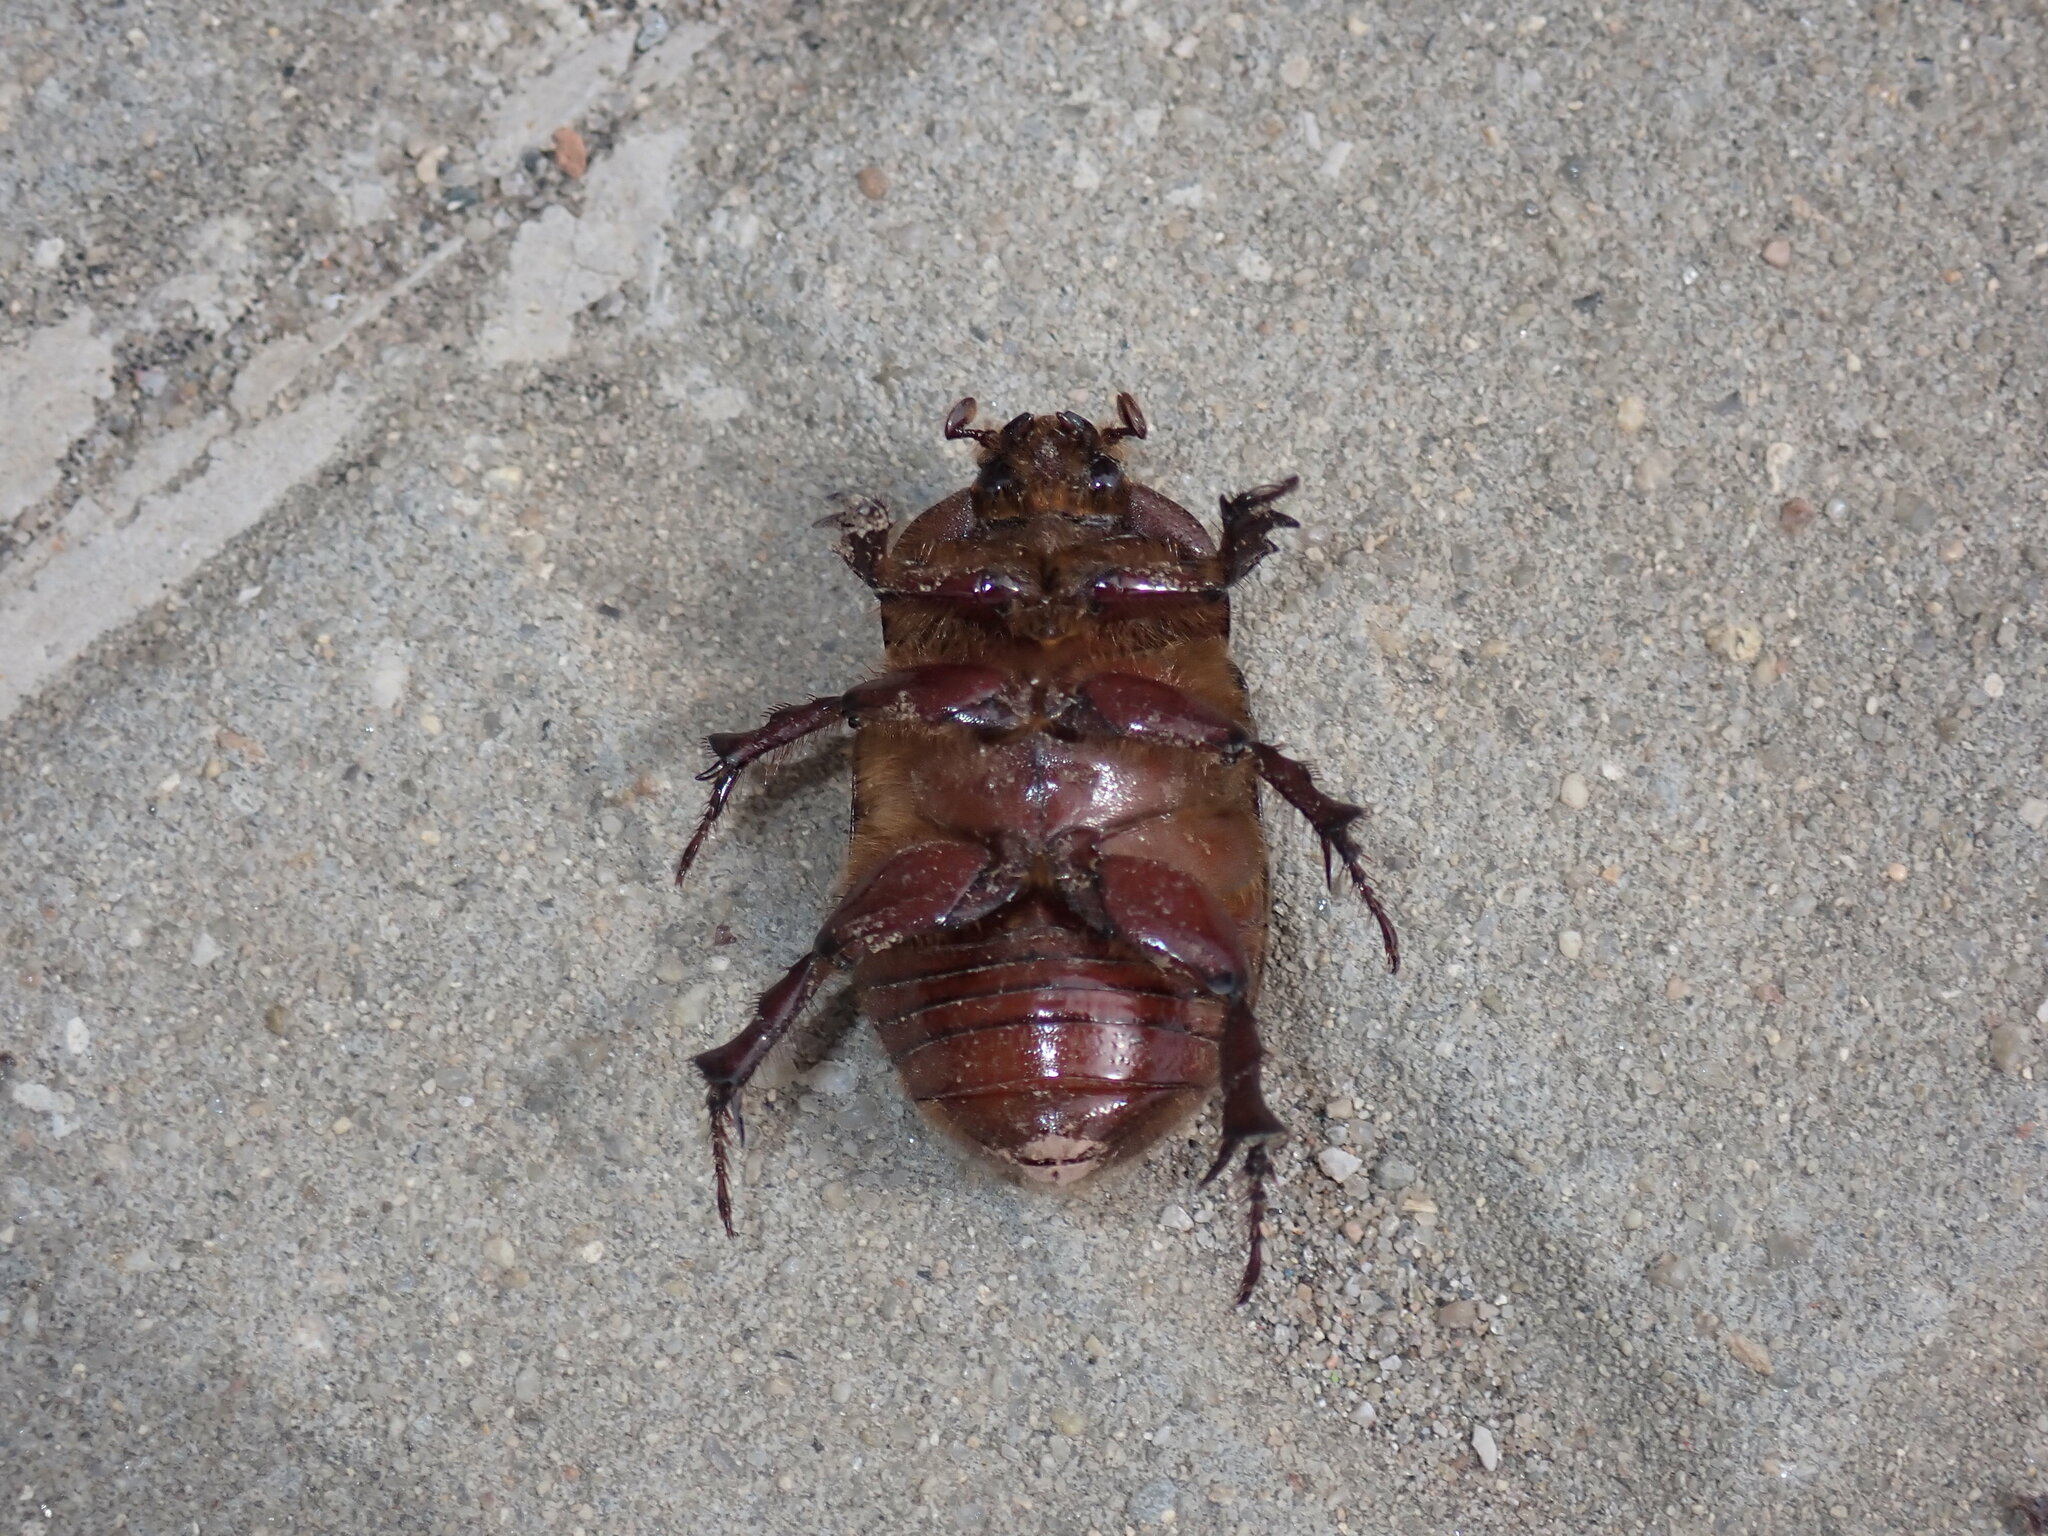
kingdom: Animalia
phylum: Arthropoda
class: Insecta
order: Coleoptera
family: Scarabaeidae
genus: Phyllognathus
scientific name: Phyllognathus excavatus
